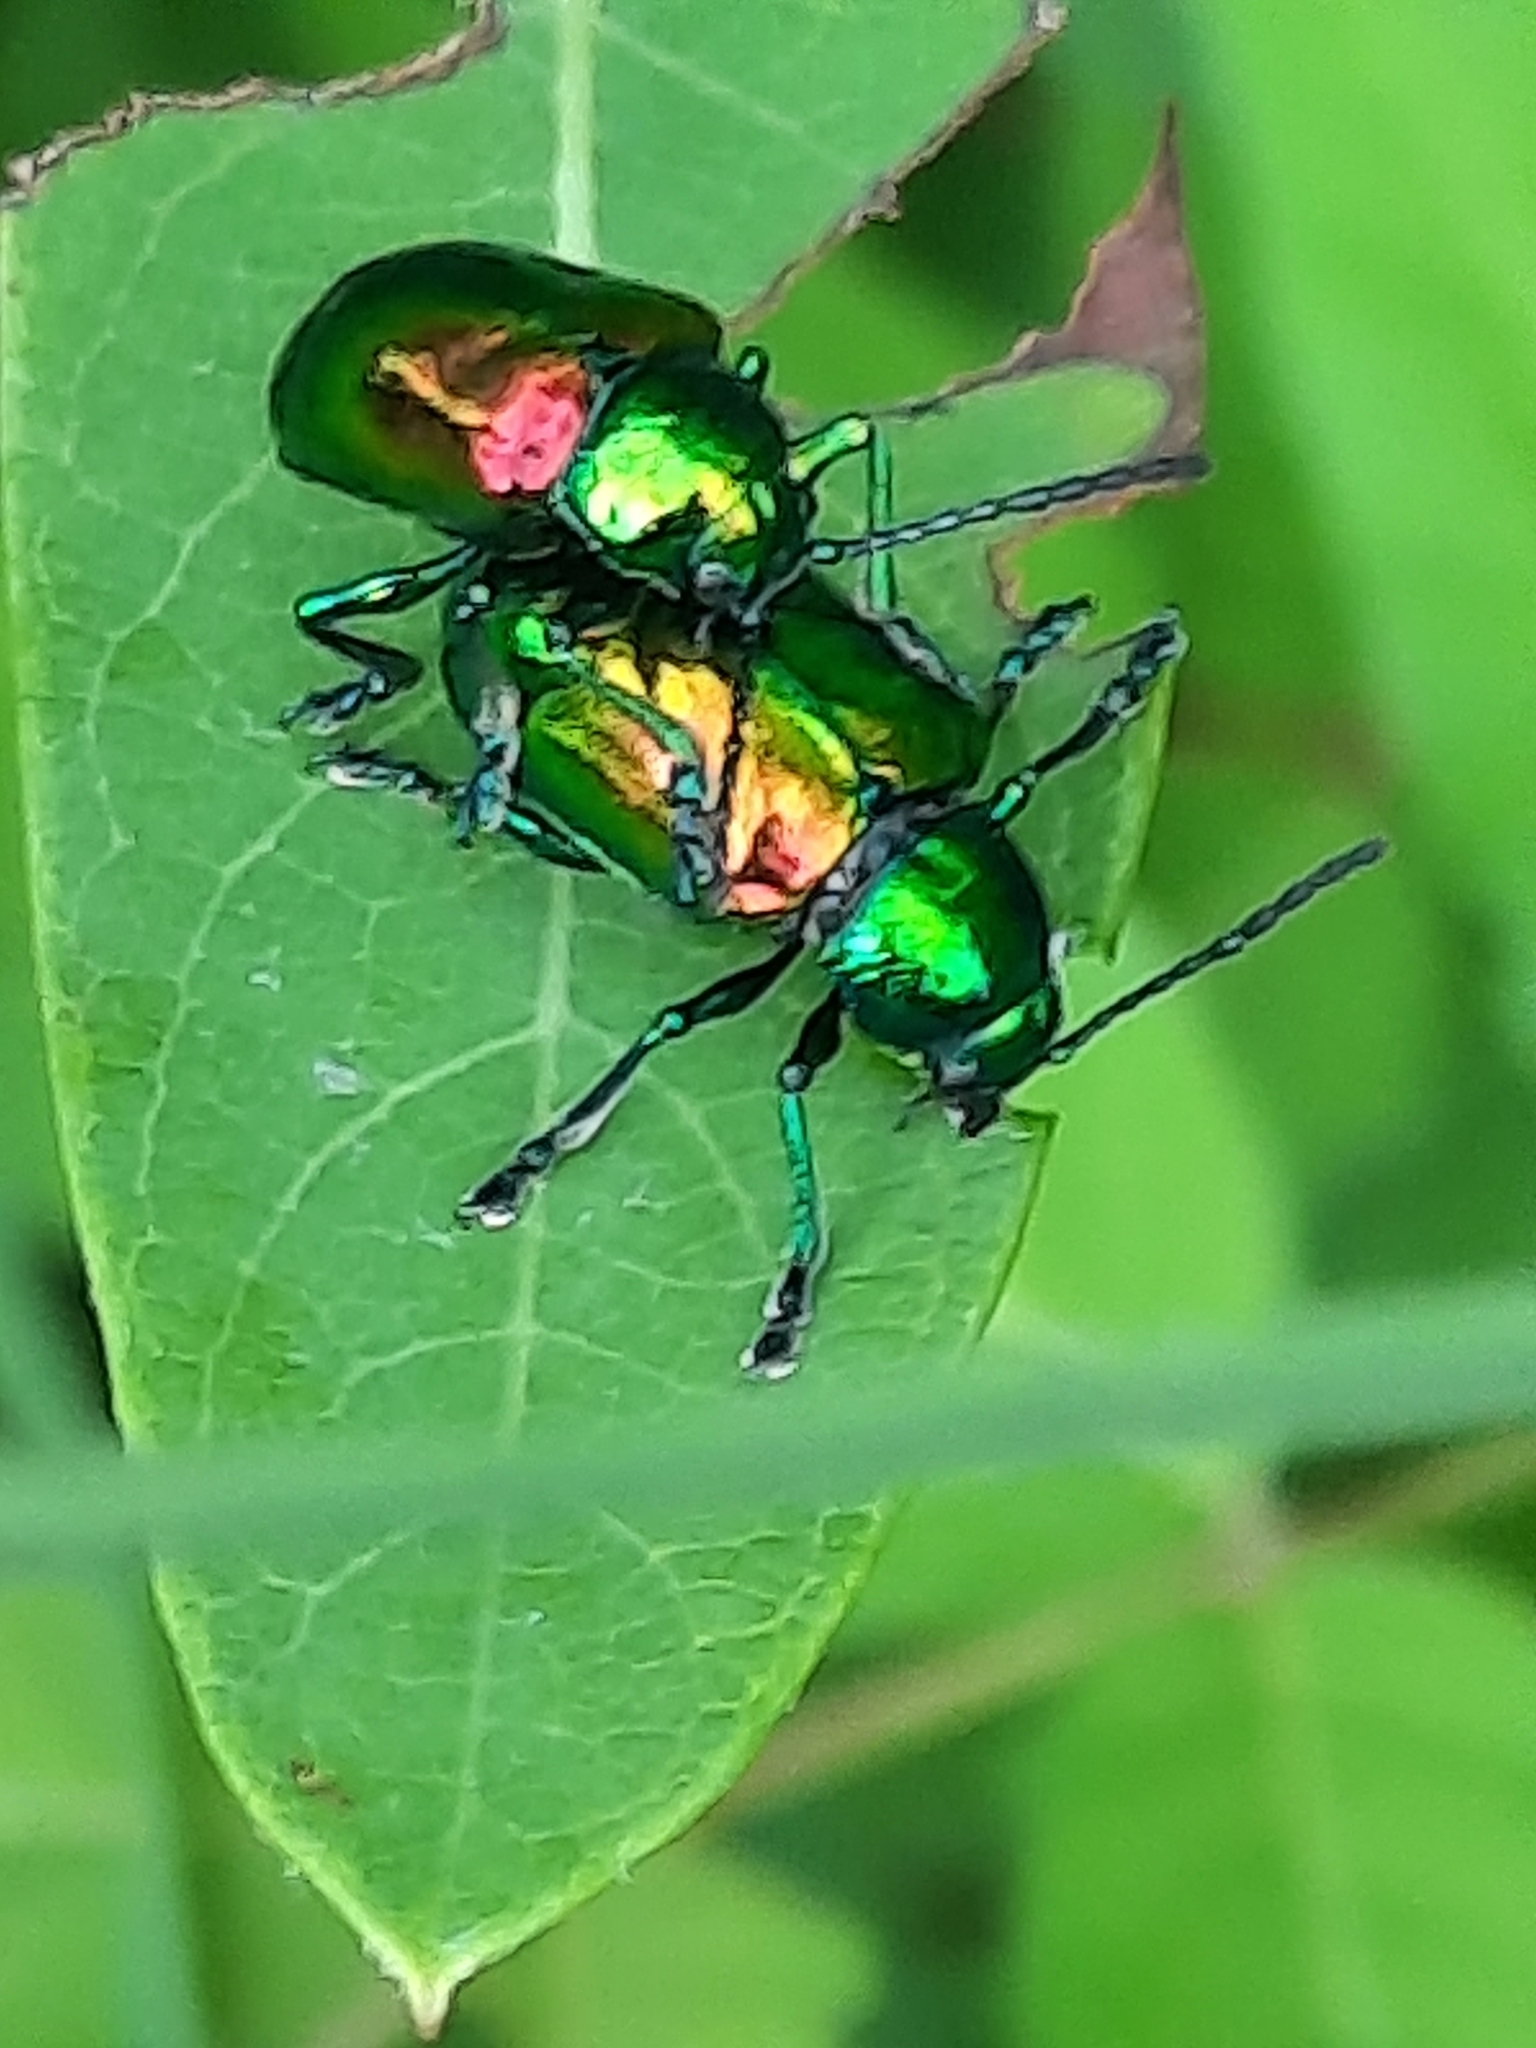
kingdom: Animalia
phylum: Arthropoda
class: Insecta
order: Coleoptera
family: Chrysomelidae
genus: Chrysochus
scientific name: Chrysochus auratus
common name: Dogbane leaf beetle
